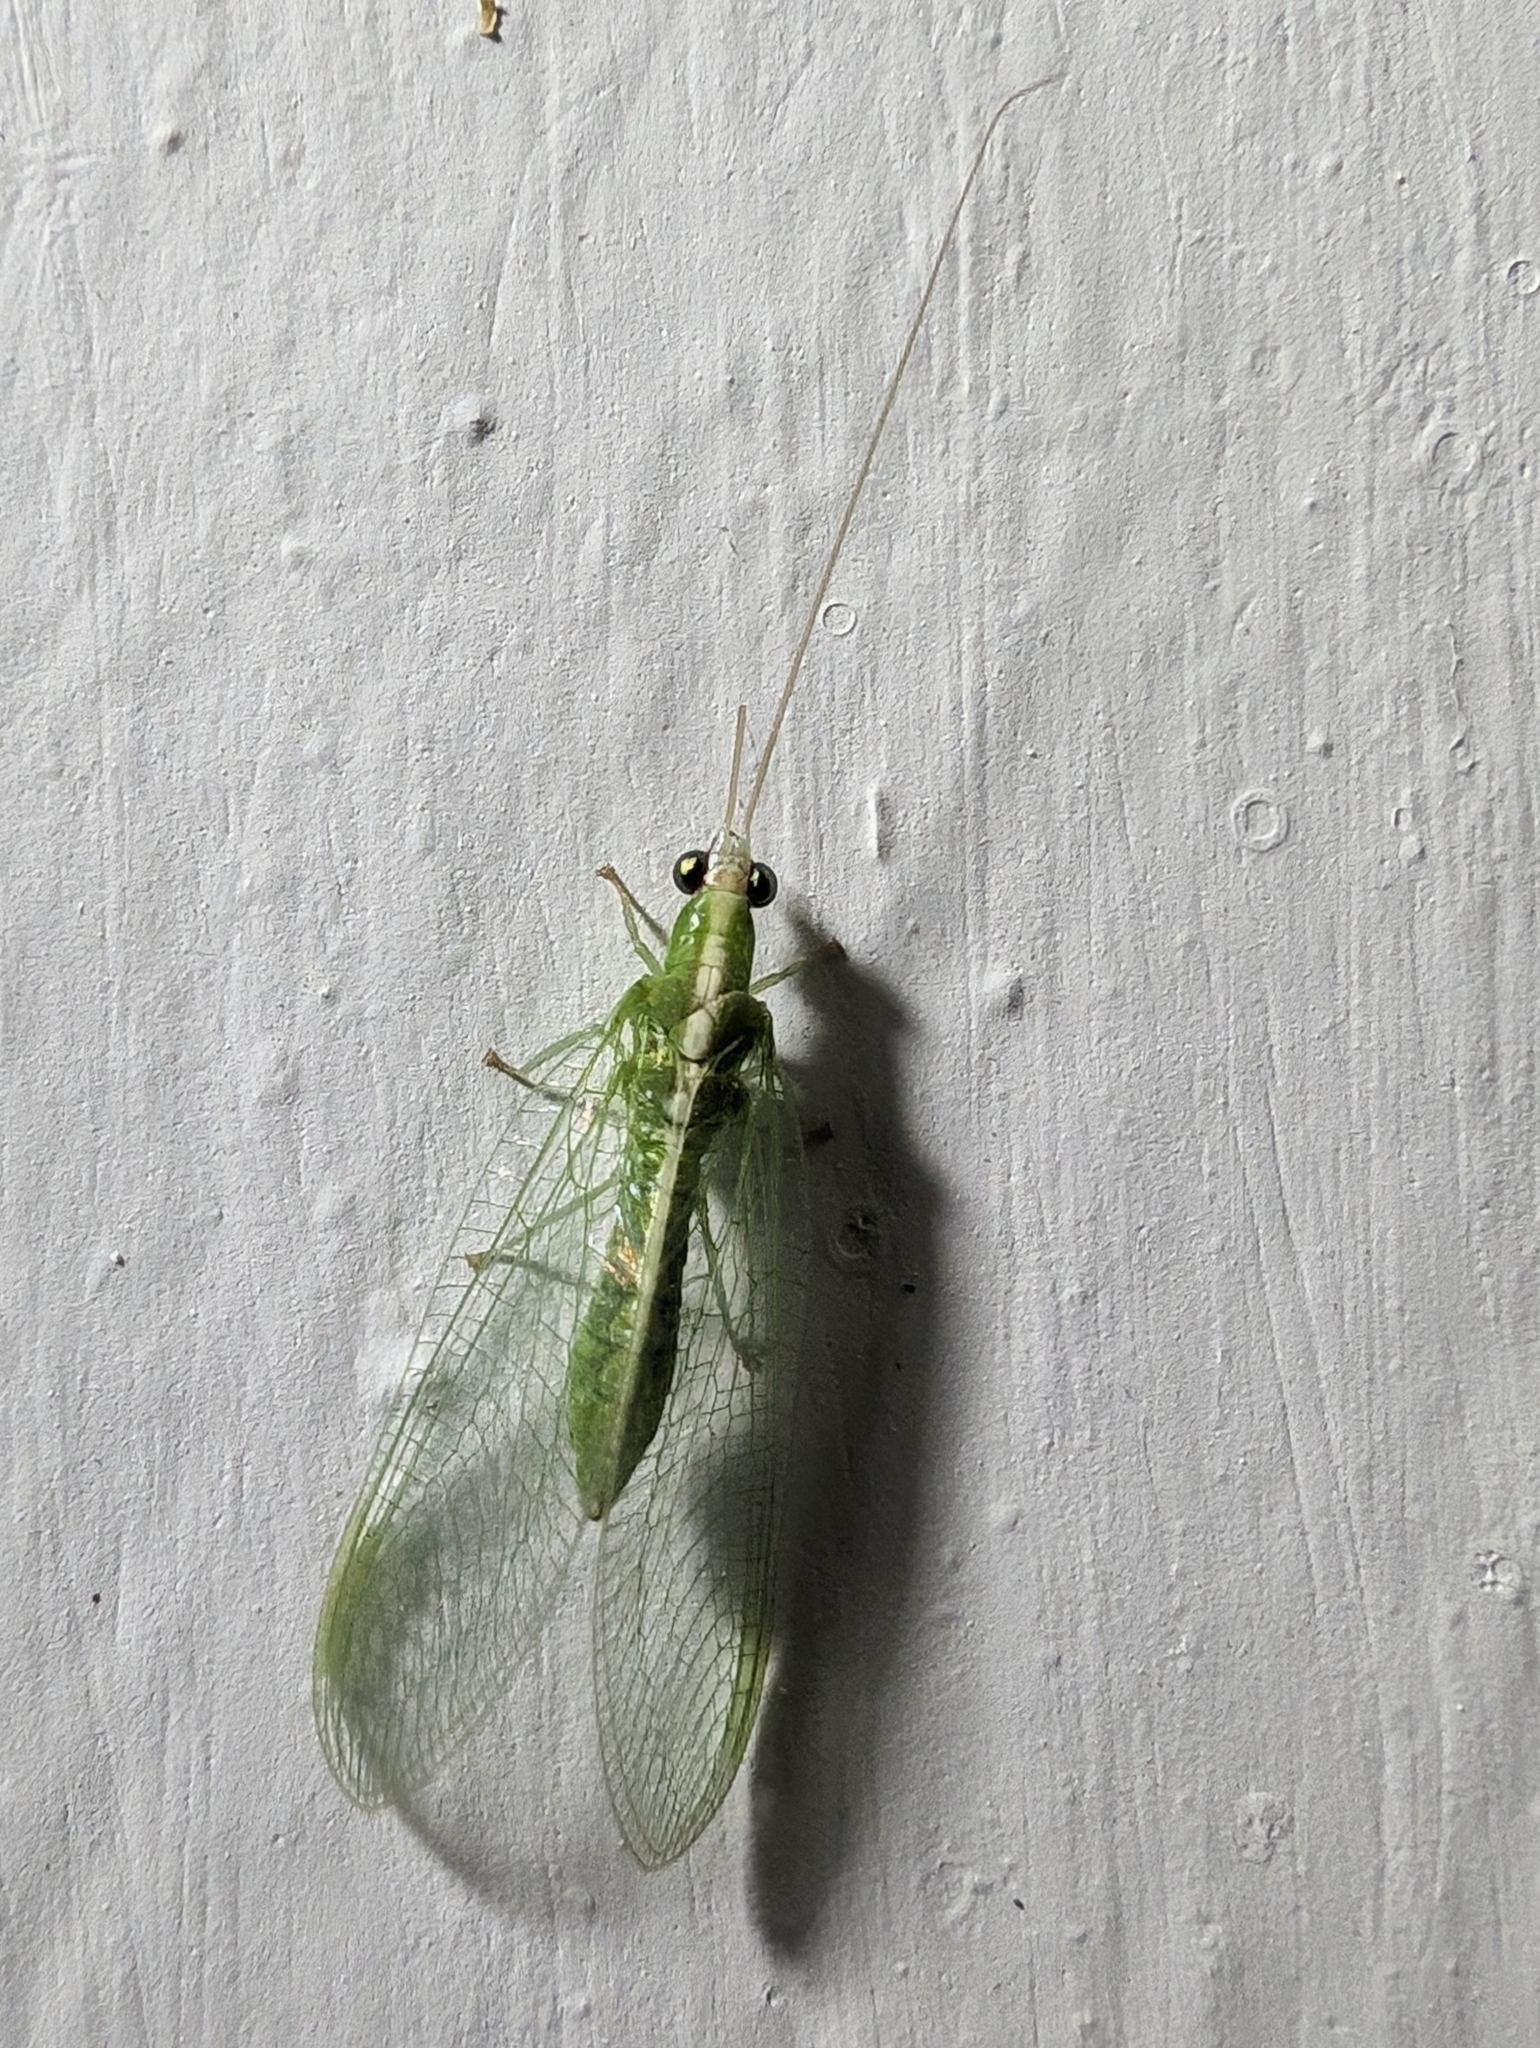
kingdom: Animalia
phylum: Arthropoda
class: Insecta
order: Neuroptera
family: Chrysopidae
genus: Chrysopodes
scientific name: Chrysopodes collaris
